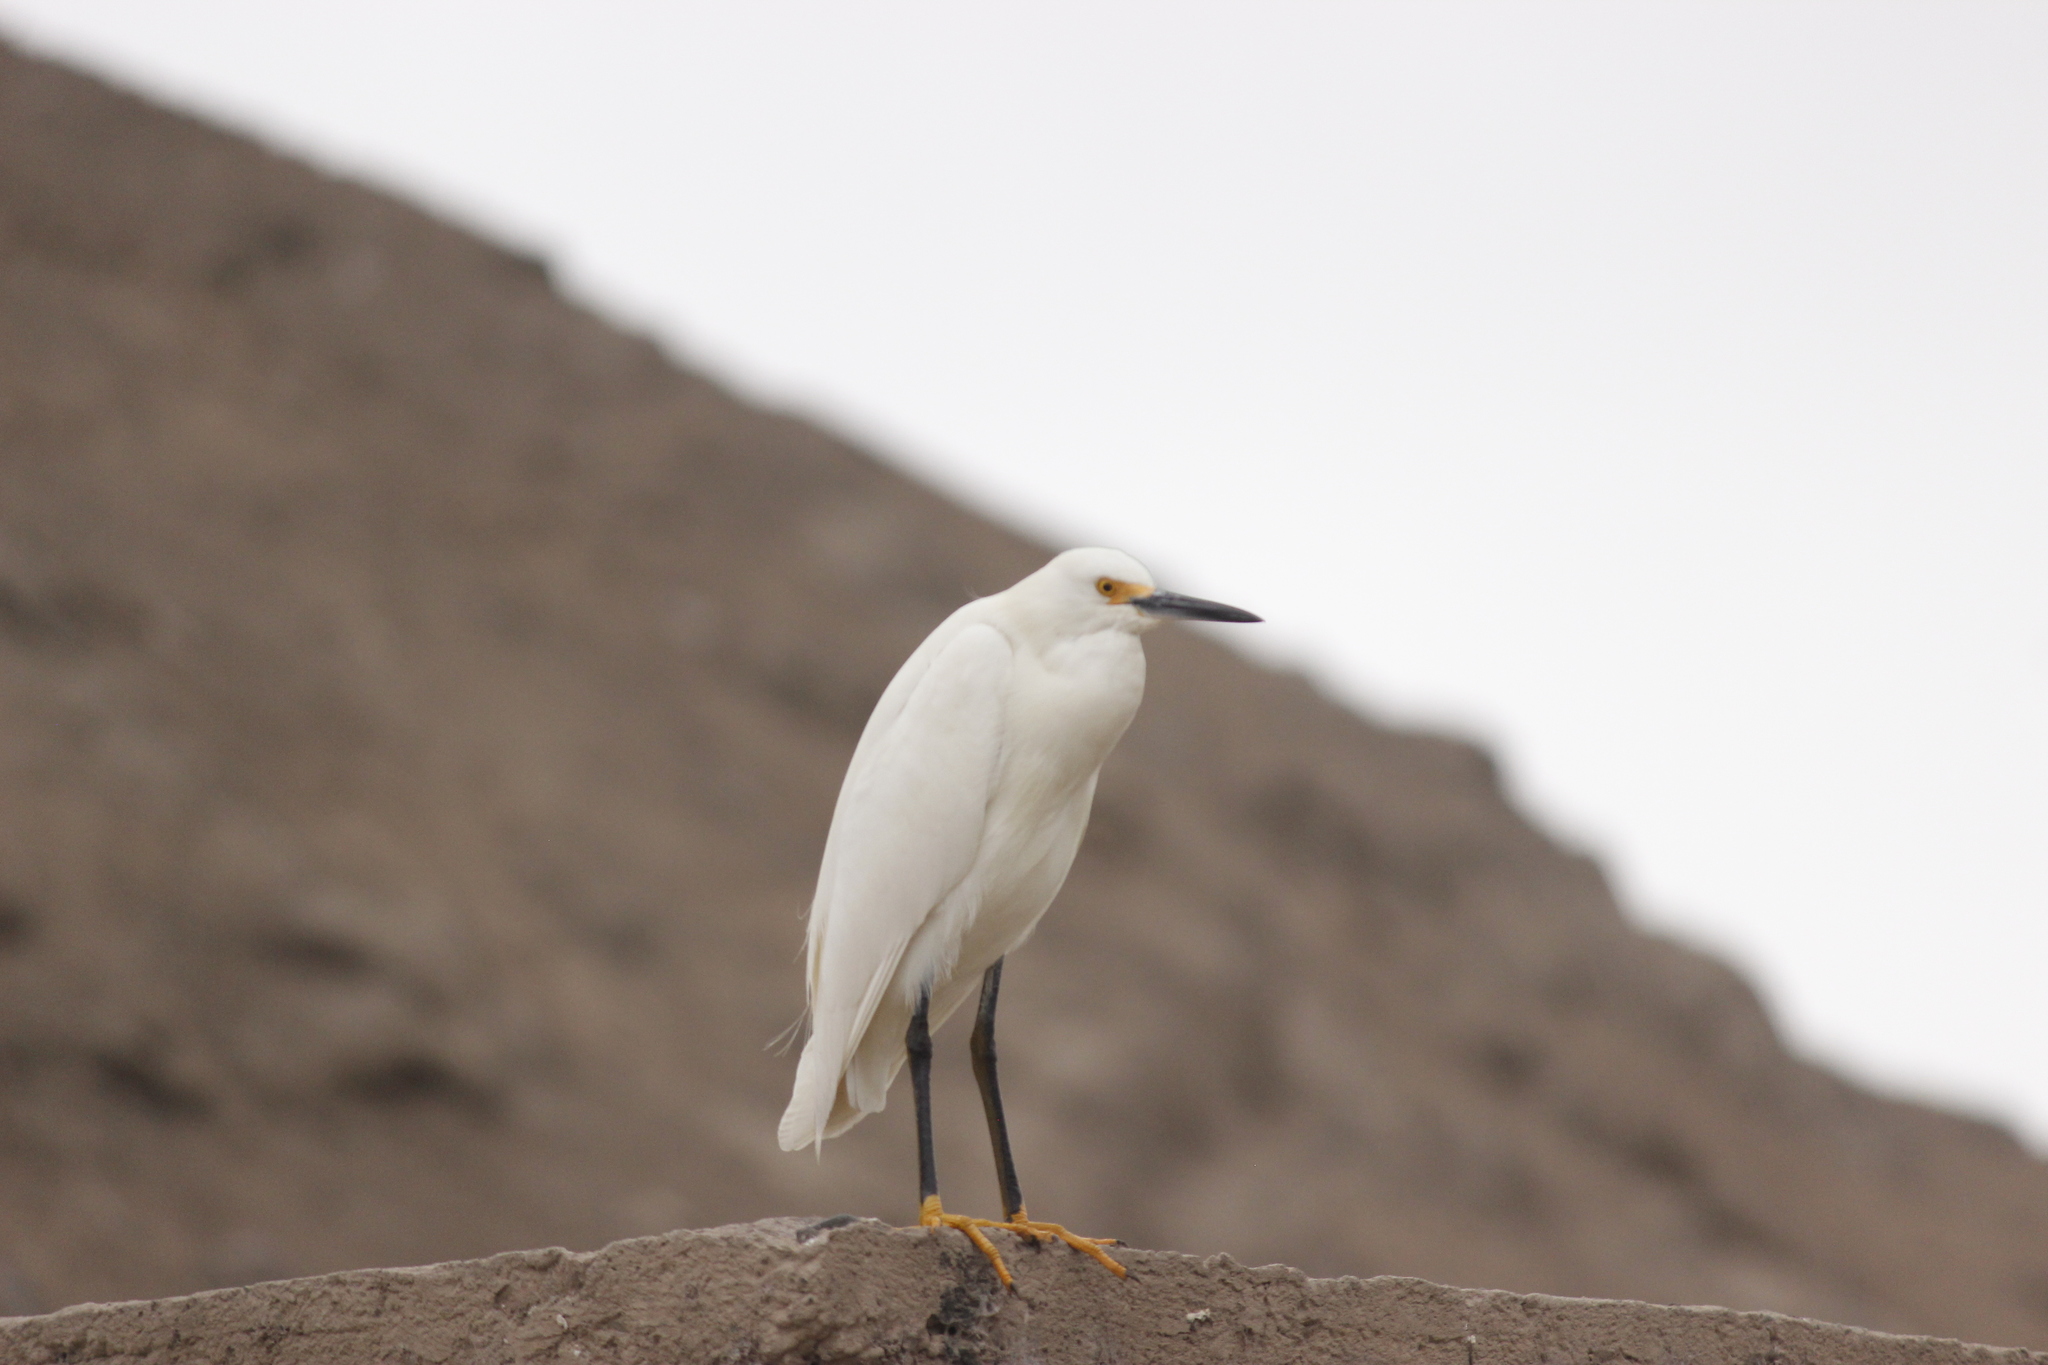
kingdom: Animalia
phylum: Chordata
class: Aves
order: Pelecaniformes
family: Ardeidae
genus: Egretta
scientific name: Egretta thula
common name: Snowy egret
